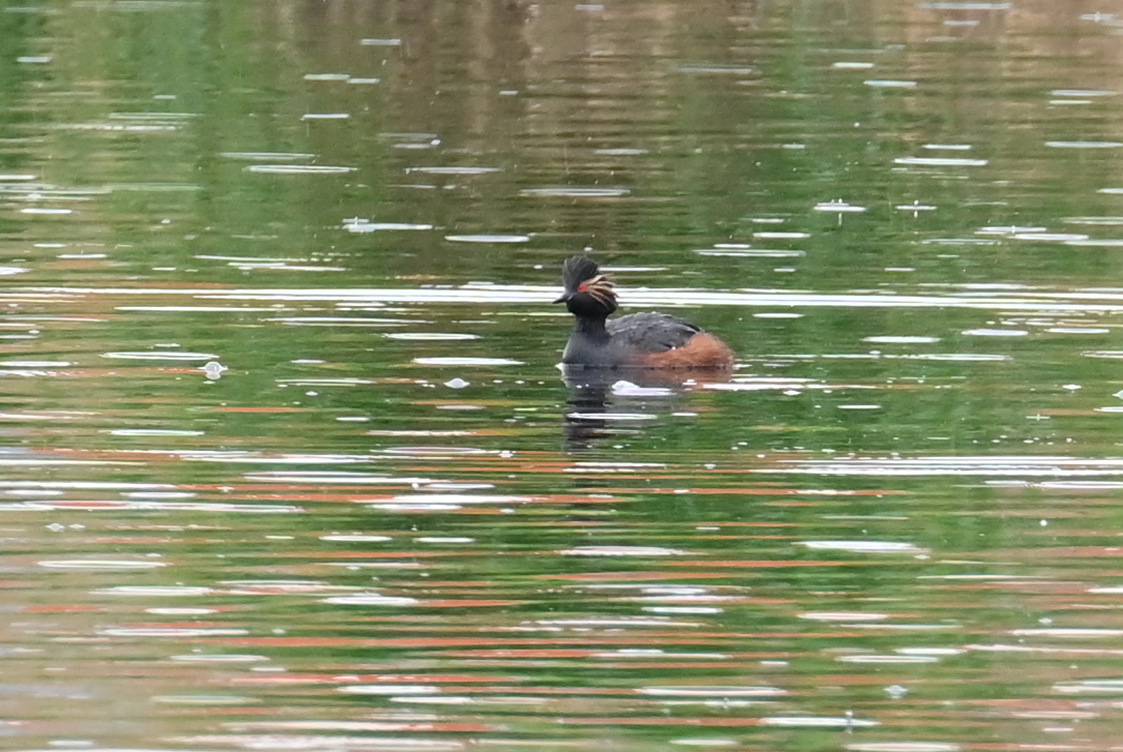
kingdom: Animalia
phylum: Chordata
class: Aves
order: Podicipediformes
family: Podicipedidae
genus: Podiceps
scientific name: Podiceps nigricollis
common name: Black-necked grebe
